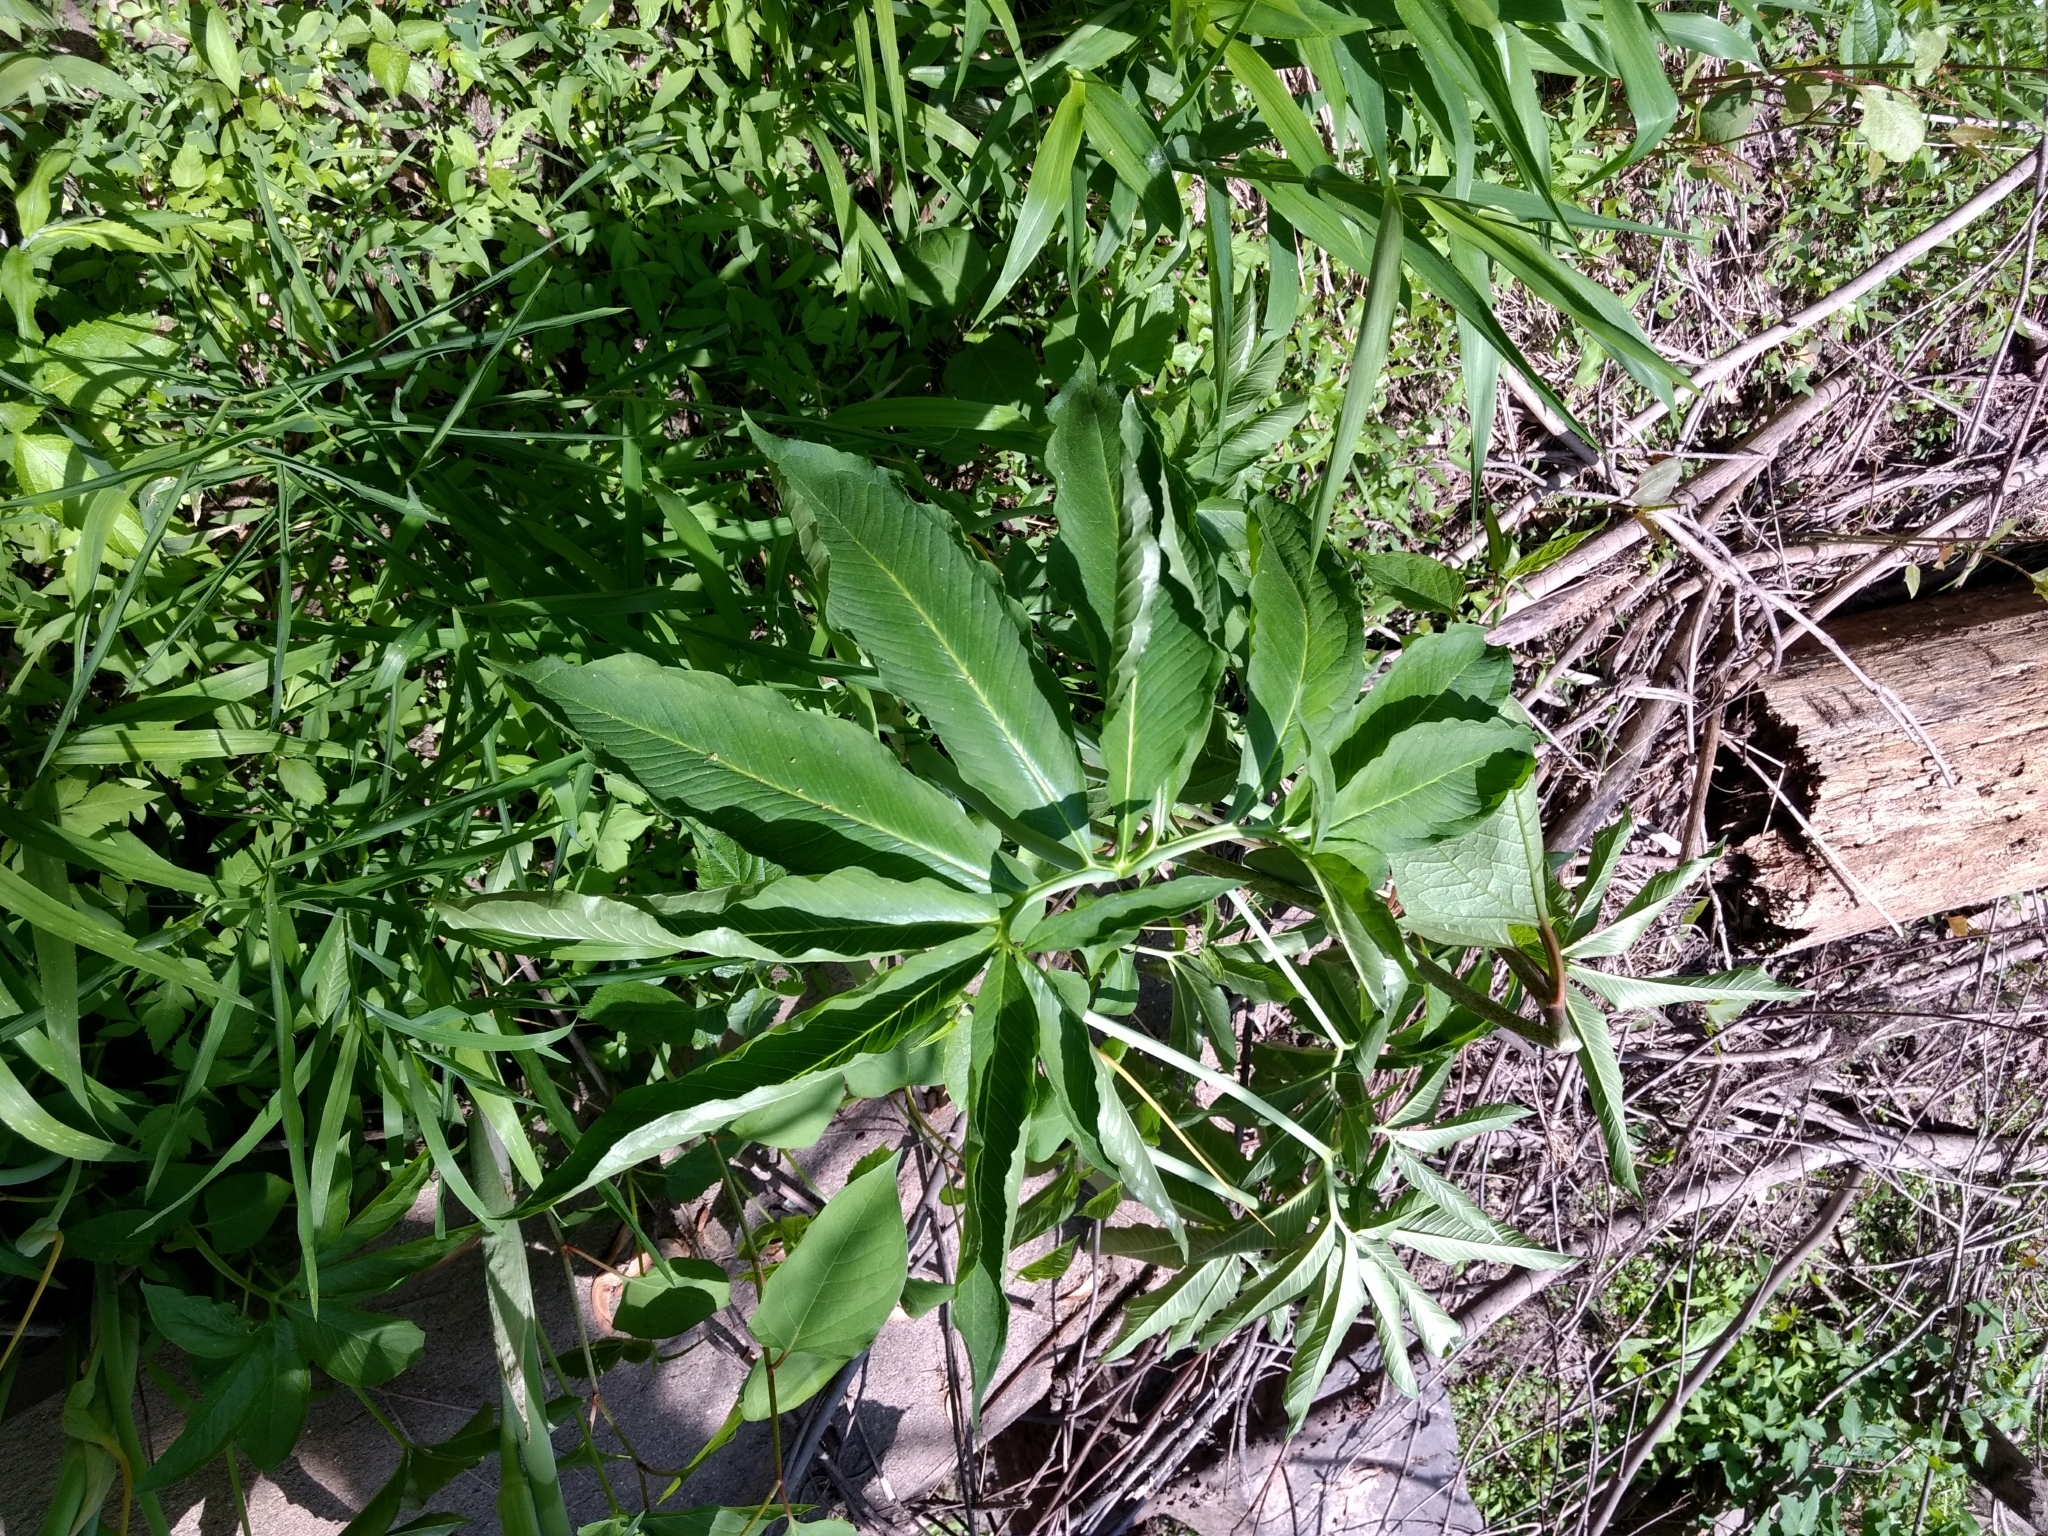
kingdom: Plantae
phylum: Tracheophyta
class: Liliopsida
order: Alismatales
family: Araceae
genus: Arisaema
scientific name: Arisaema dracontium
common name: Dragon-arum
